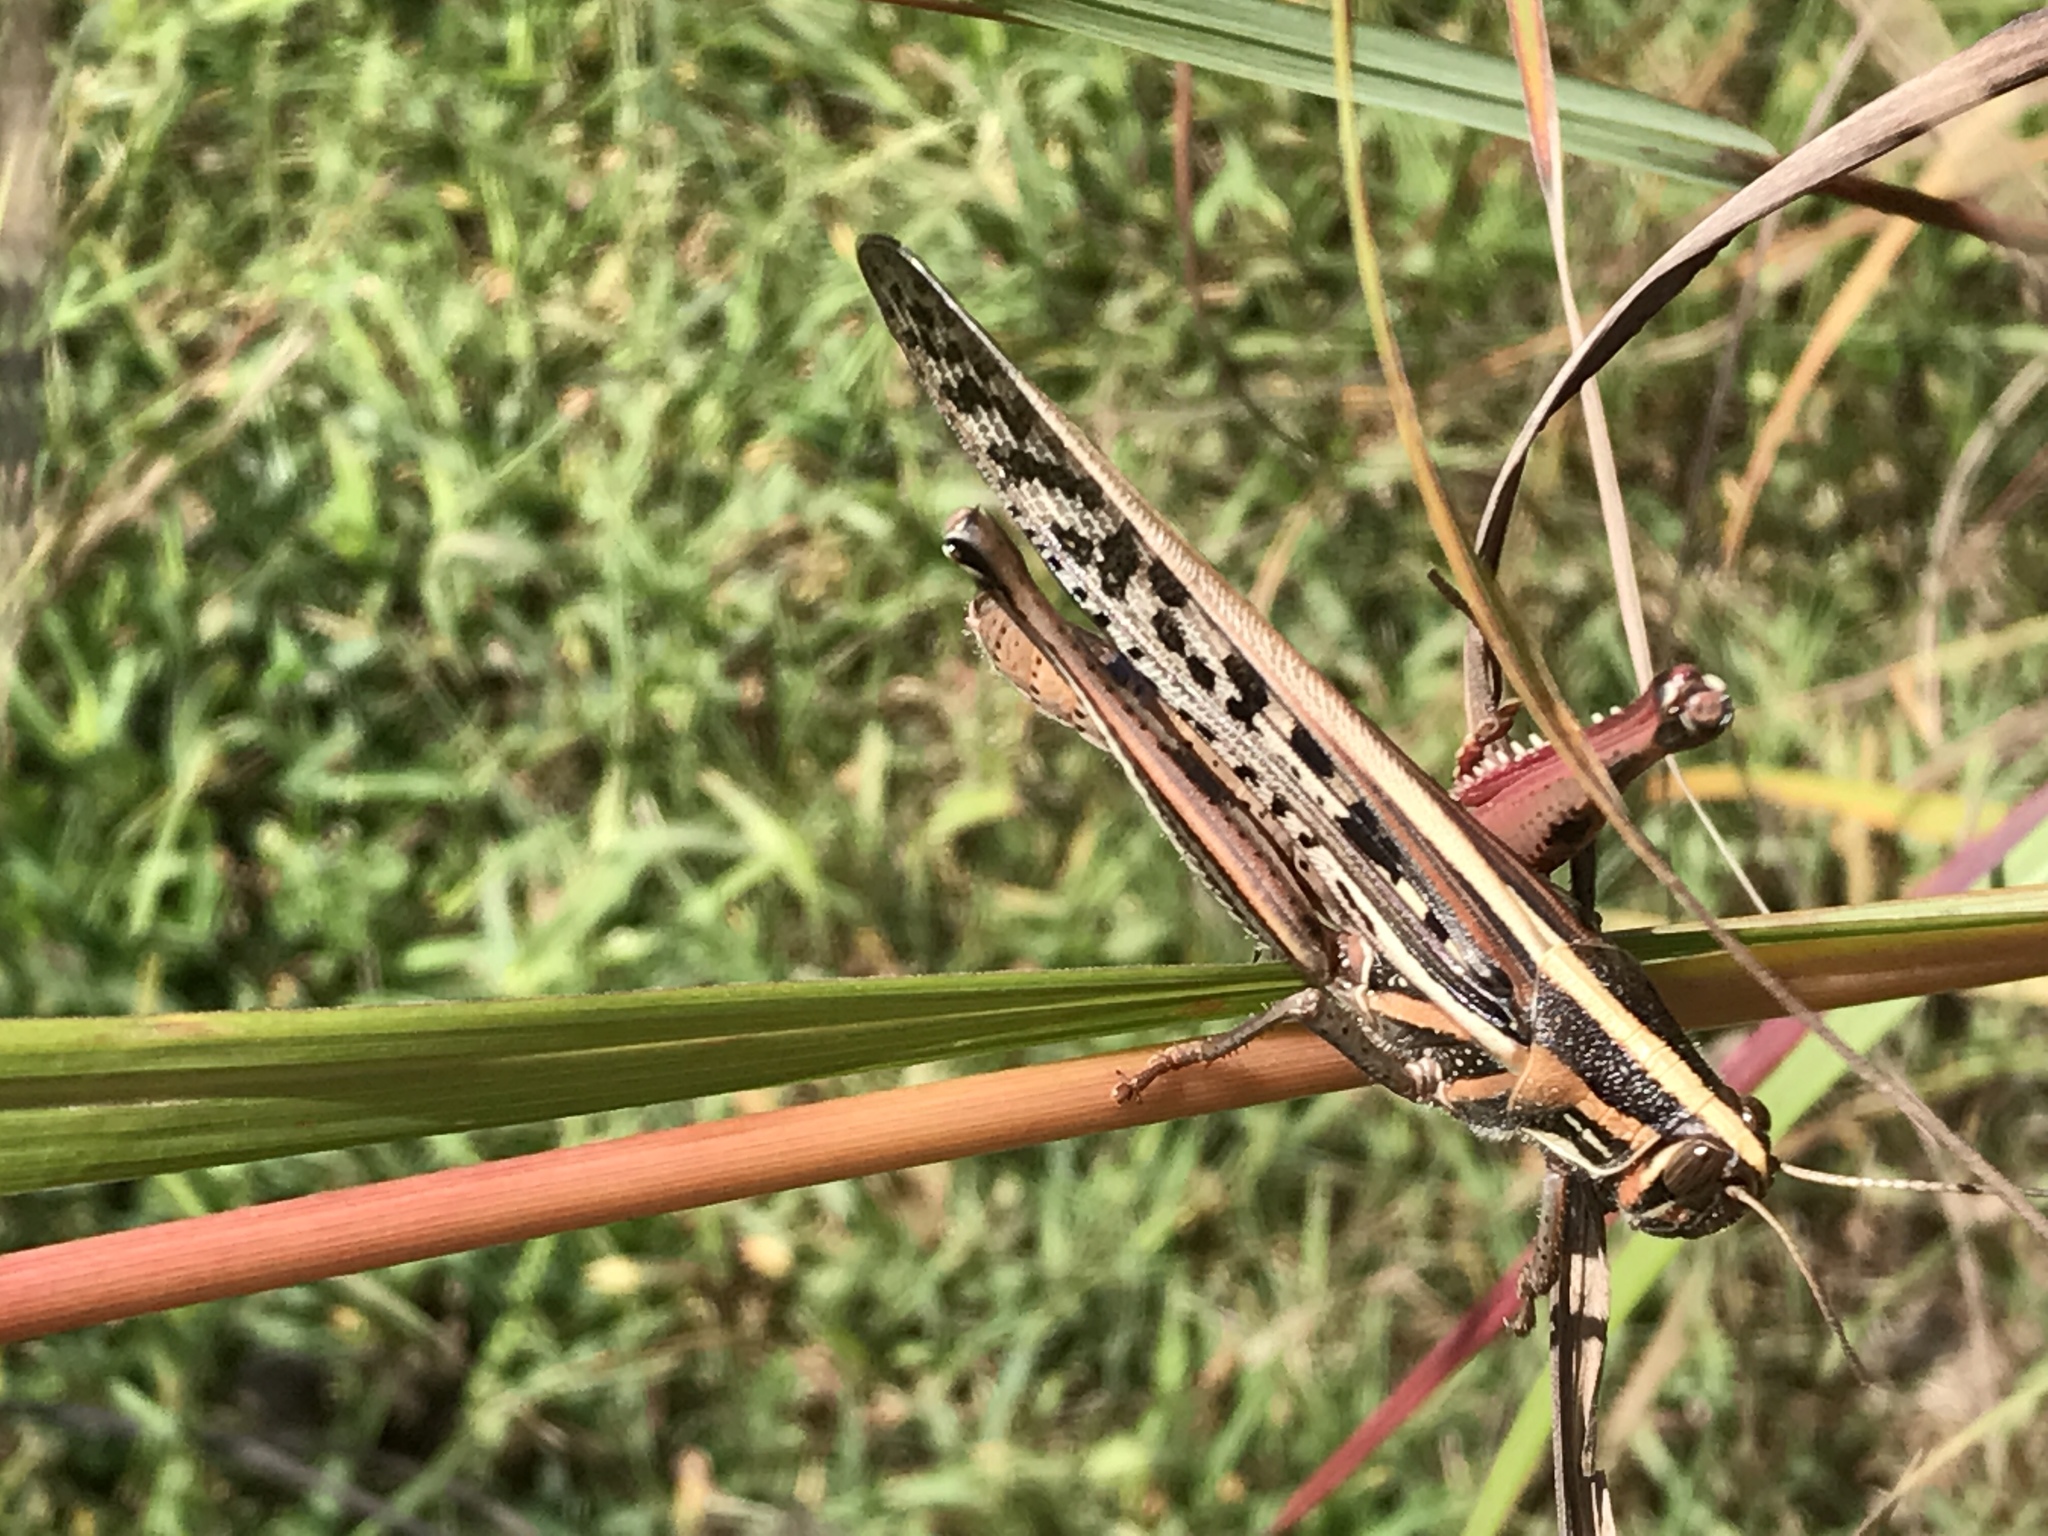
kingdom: Animalia
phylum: Arthropoda
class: Insecta
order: Orthoptera
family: Acrididae
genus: Schistocerca
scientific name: Schistocerca americana
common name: American bird locust
